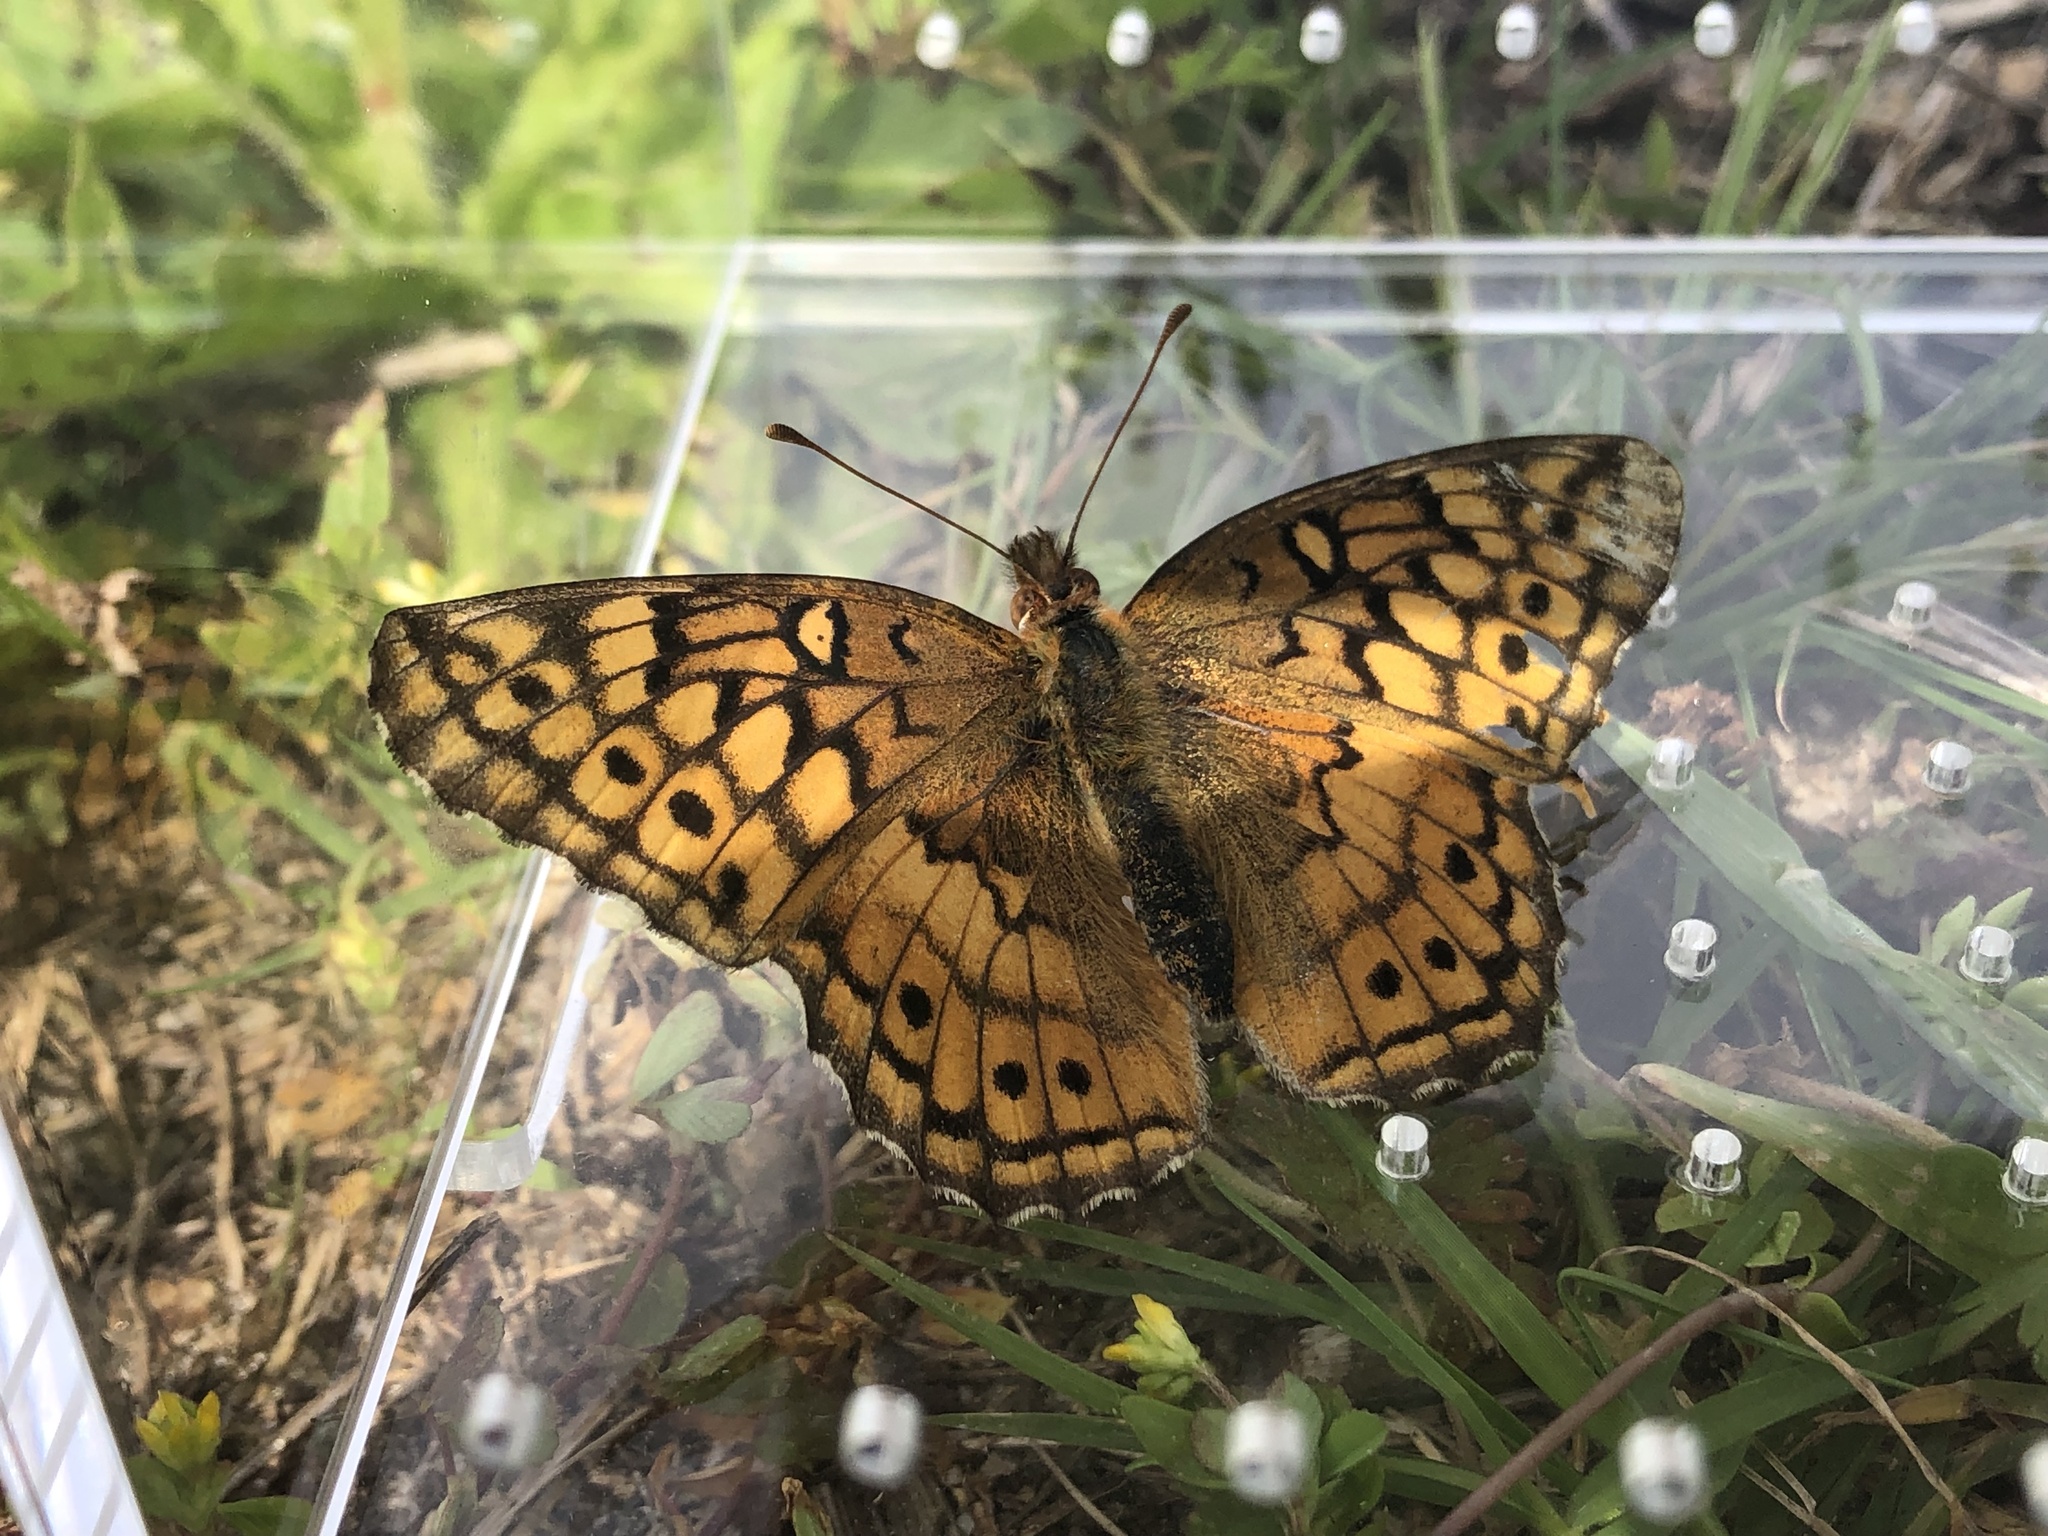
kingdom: Animalia
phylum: Arthropoda
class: Insecta
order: Lepidoptera
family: Nymphalidae
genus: Euptoieta
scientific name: Euptoieta claudia
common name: Variegated fritillary
